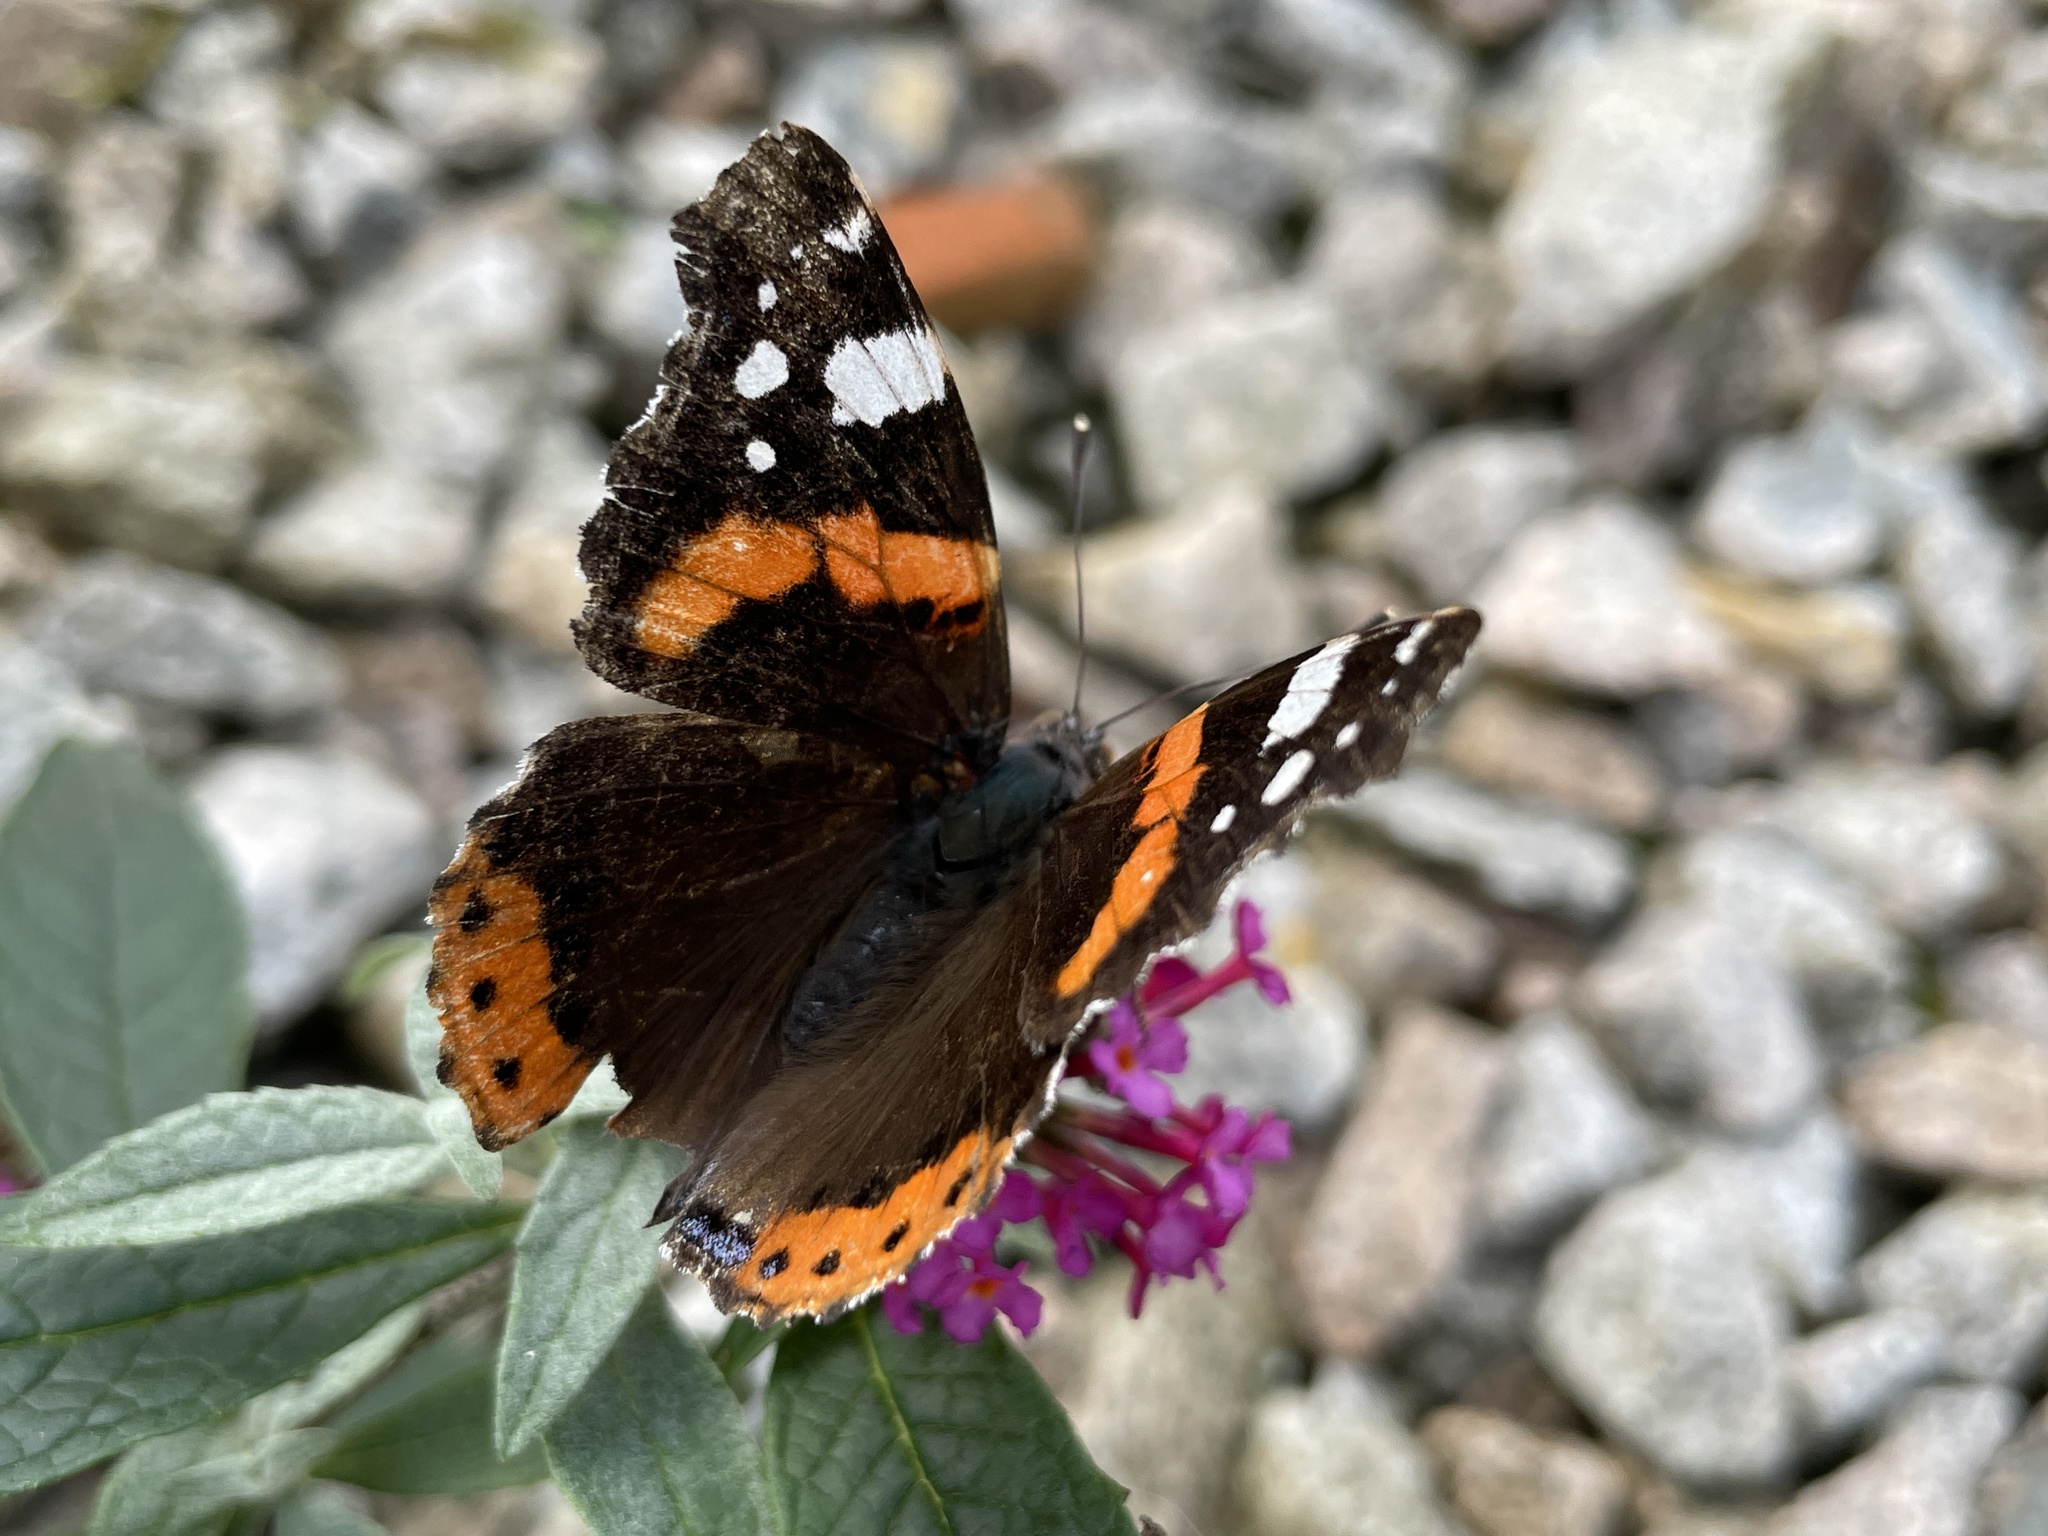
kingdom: Animalia
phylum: Arthropoda
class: Insecta
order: Lepidoptera
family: Nymphalidae
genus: Vanessa
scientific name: Vanessa atalanta
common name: Red admiral
